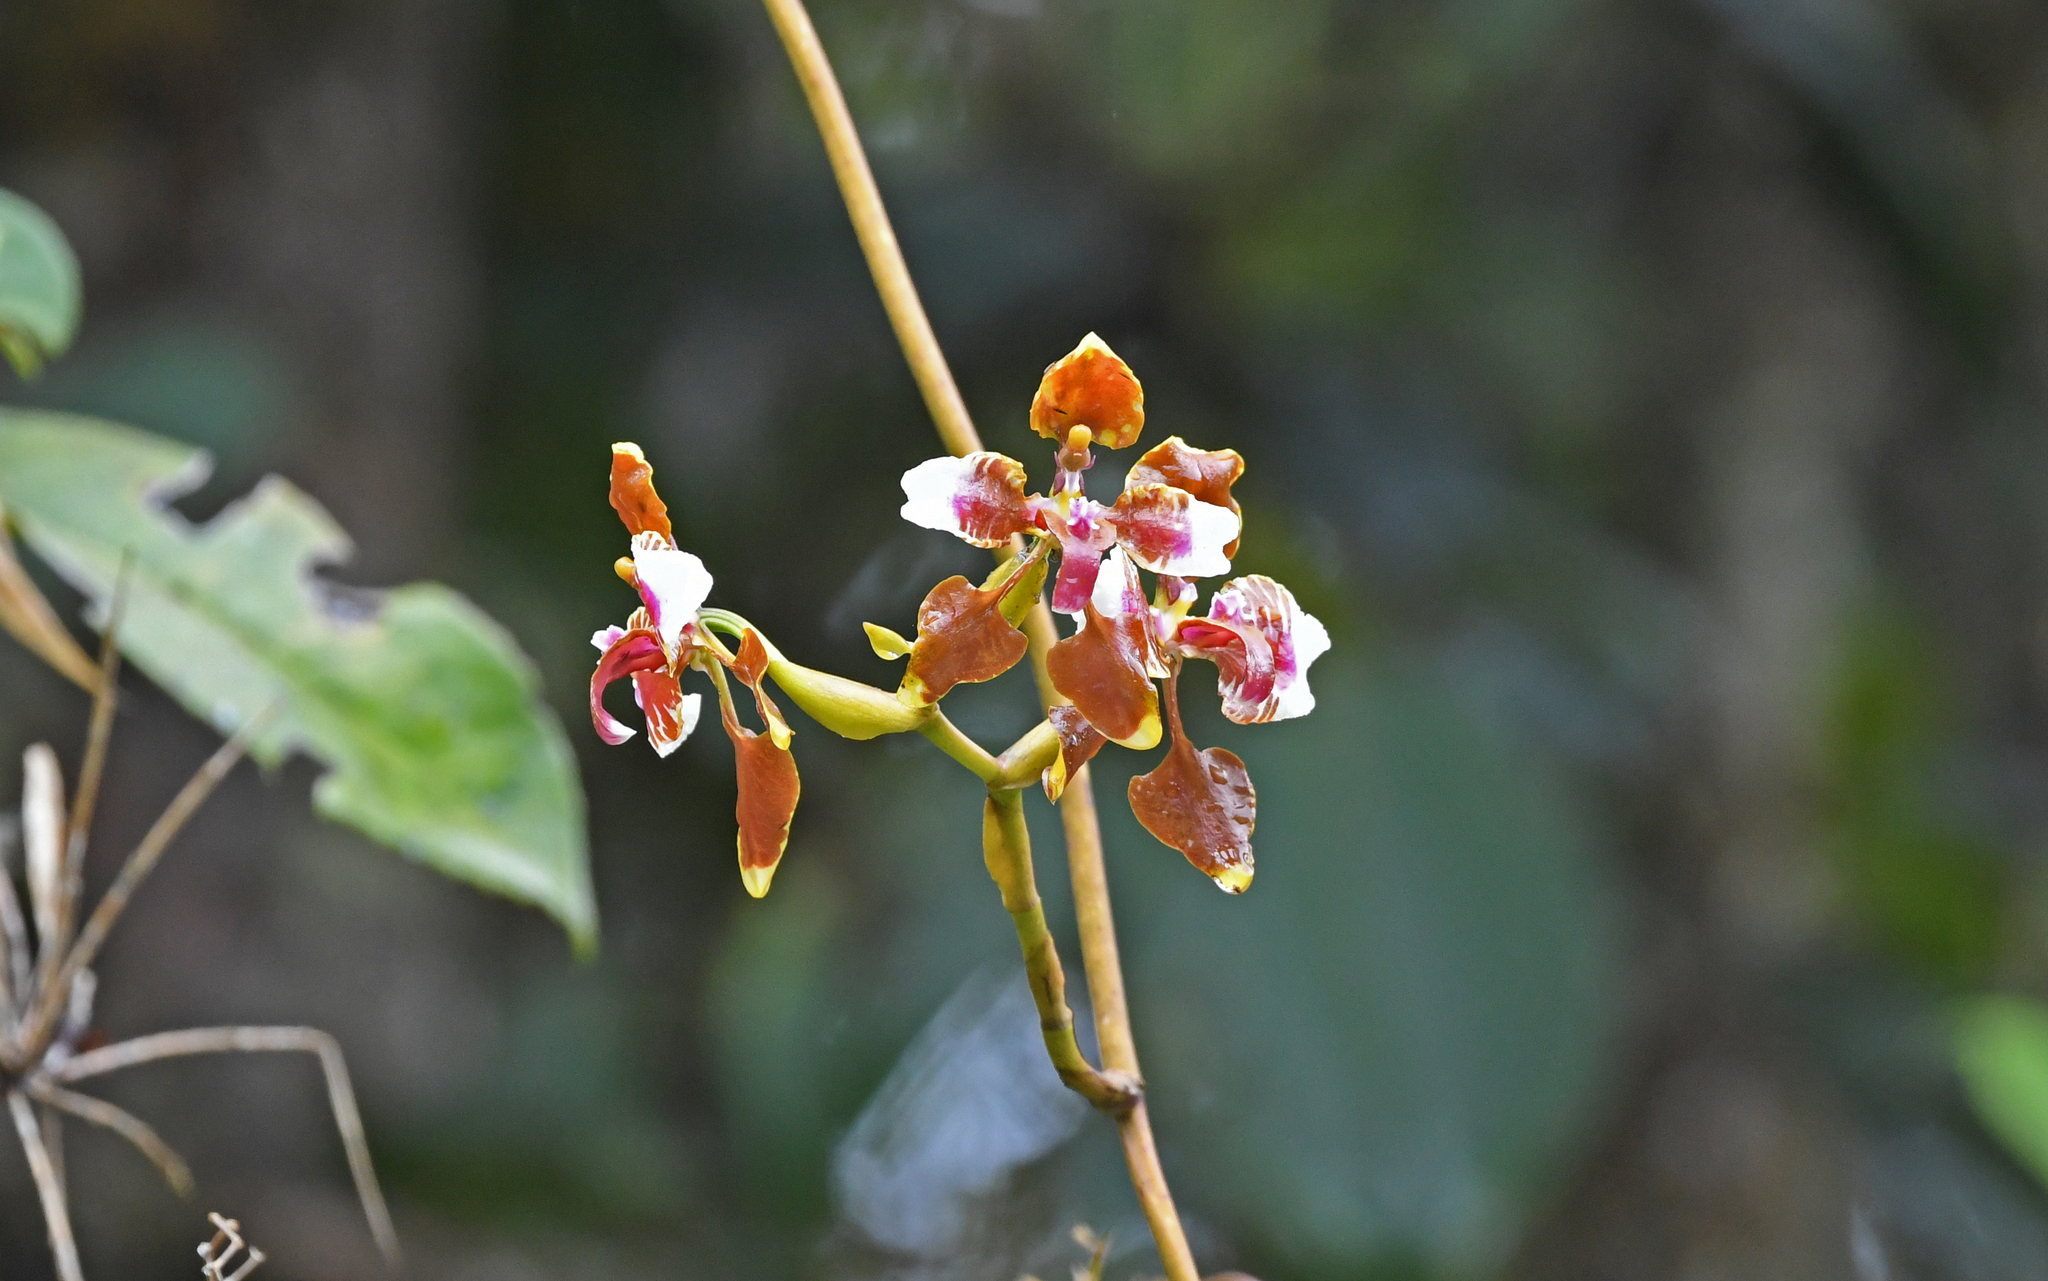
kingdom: Plantae
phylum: Tracheophyta
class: Liliopsida
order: Asparagales
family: Orchidaceae
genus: Cyrtochilum
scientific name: Cyrtochilum mendax
